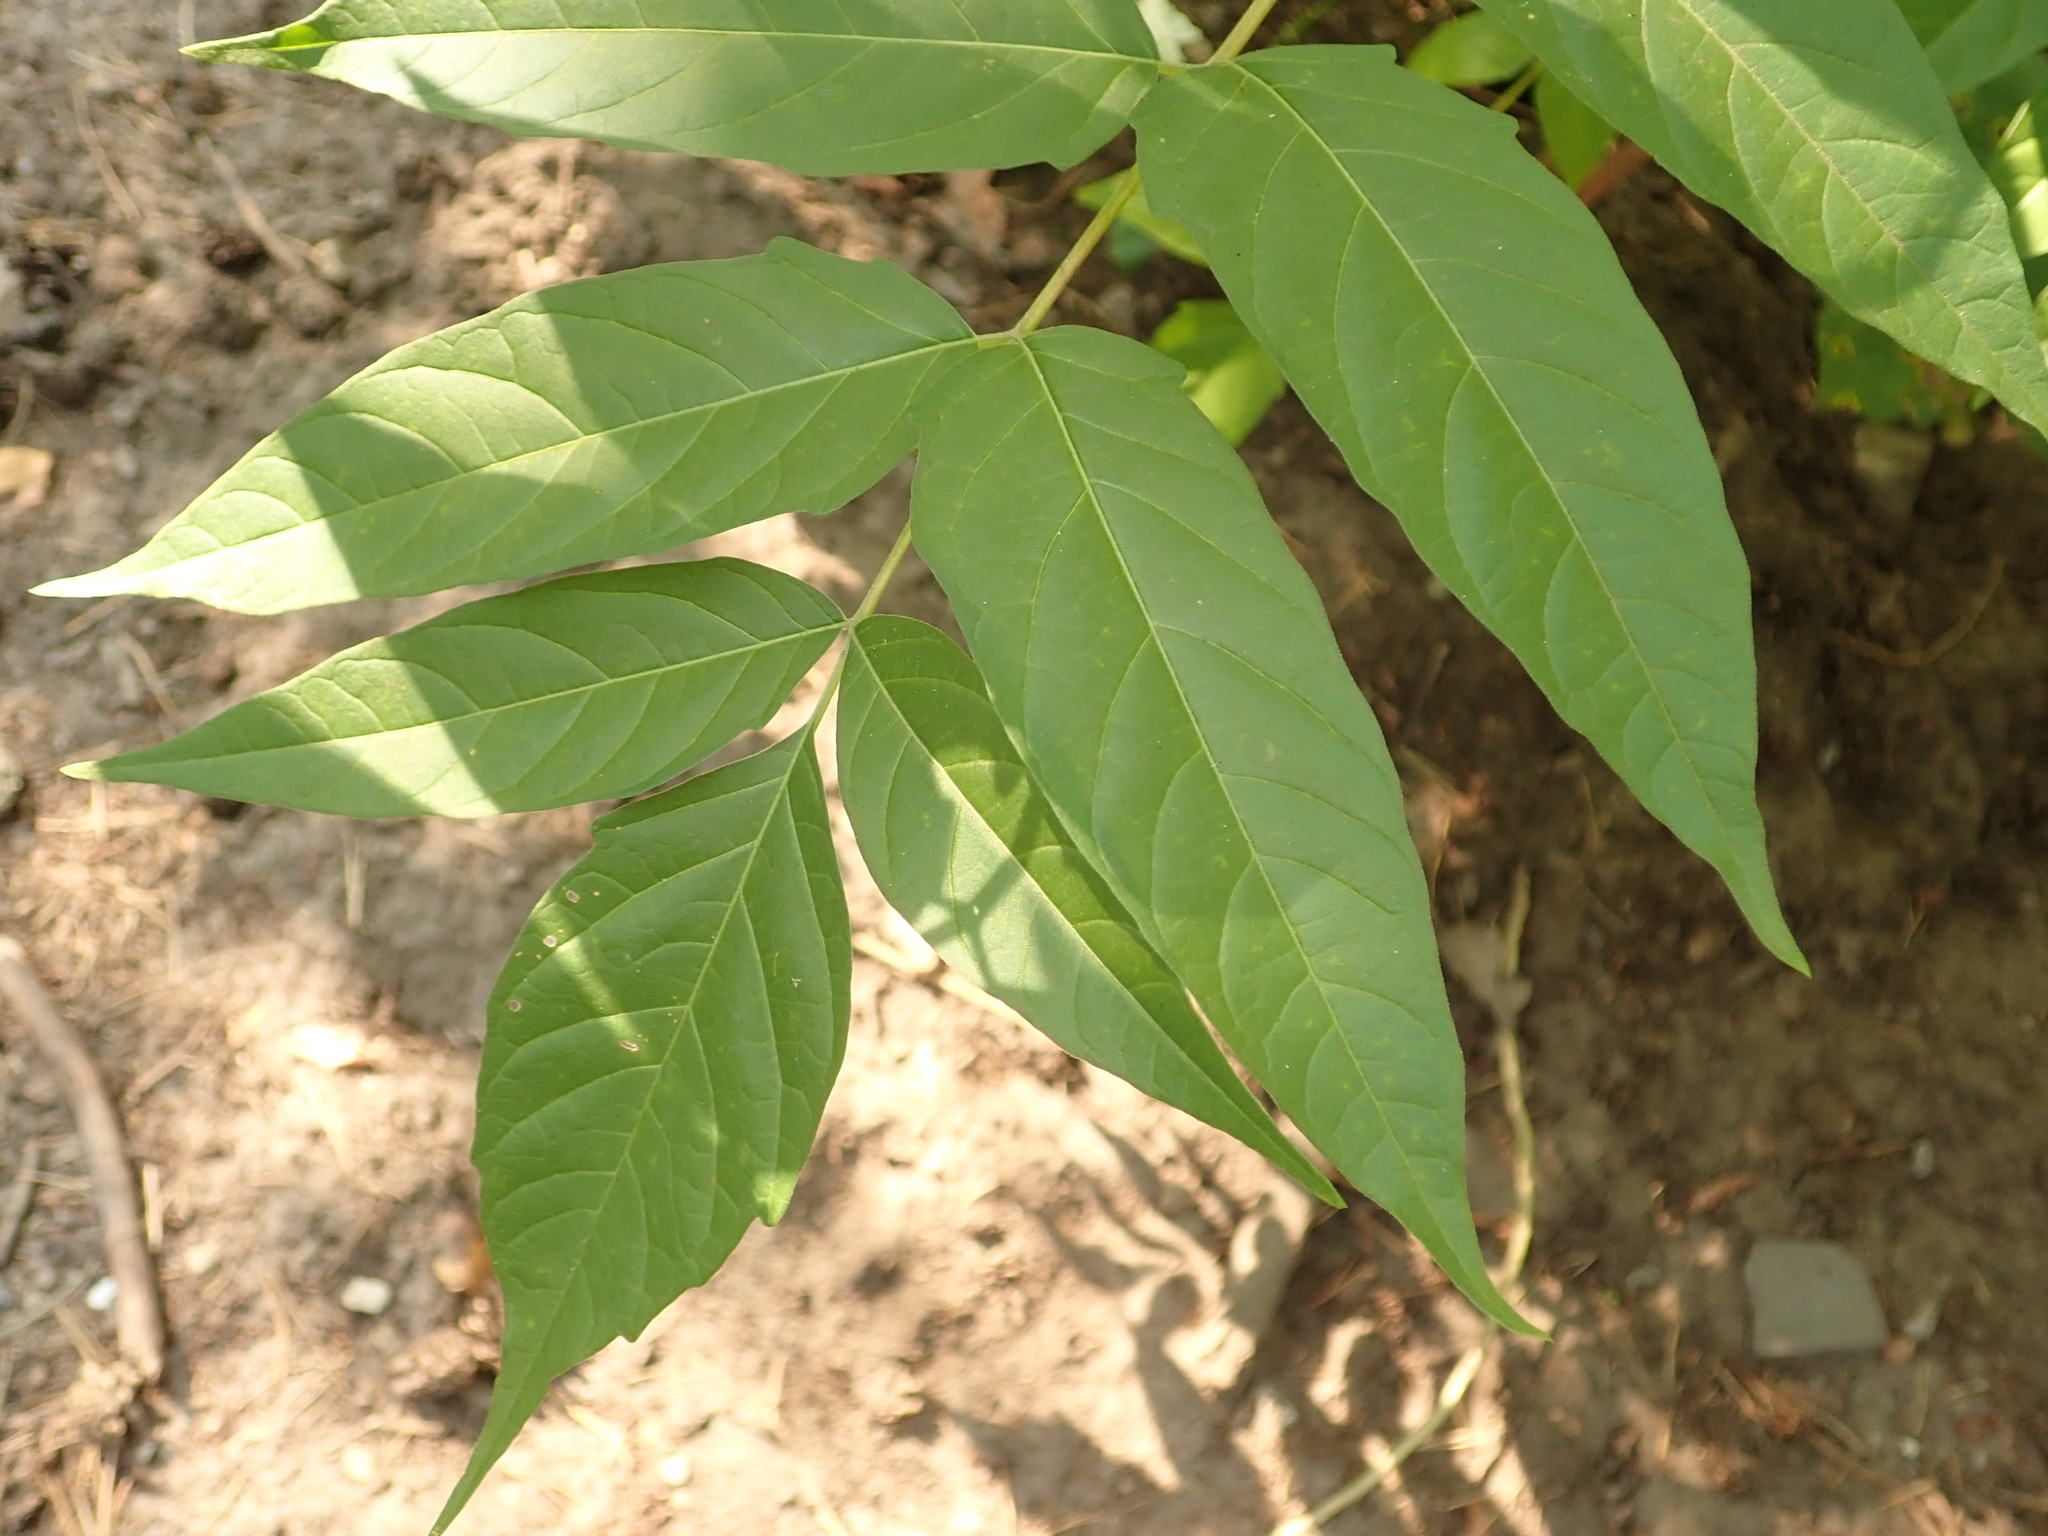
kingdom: Plantae
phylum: Tracheophyta
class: Magnoliopsida
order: Sapindales
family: Simaroubaceae
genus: Ailanthus
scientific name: Ailanthus altissima
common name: Tree-of-heaven
